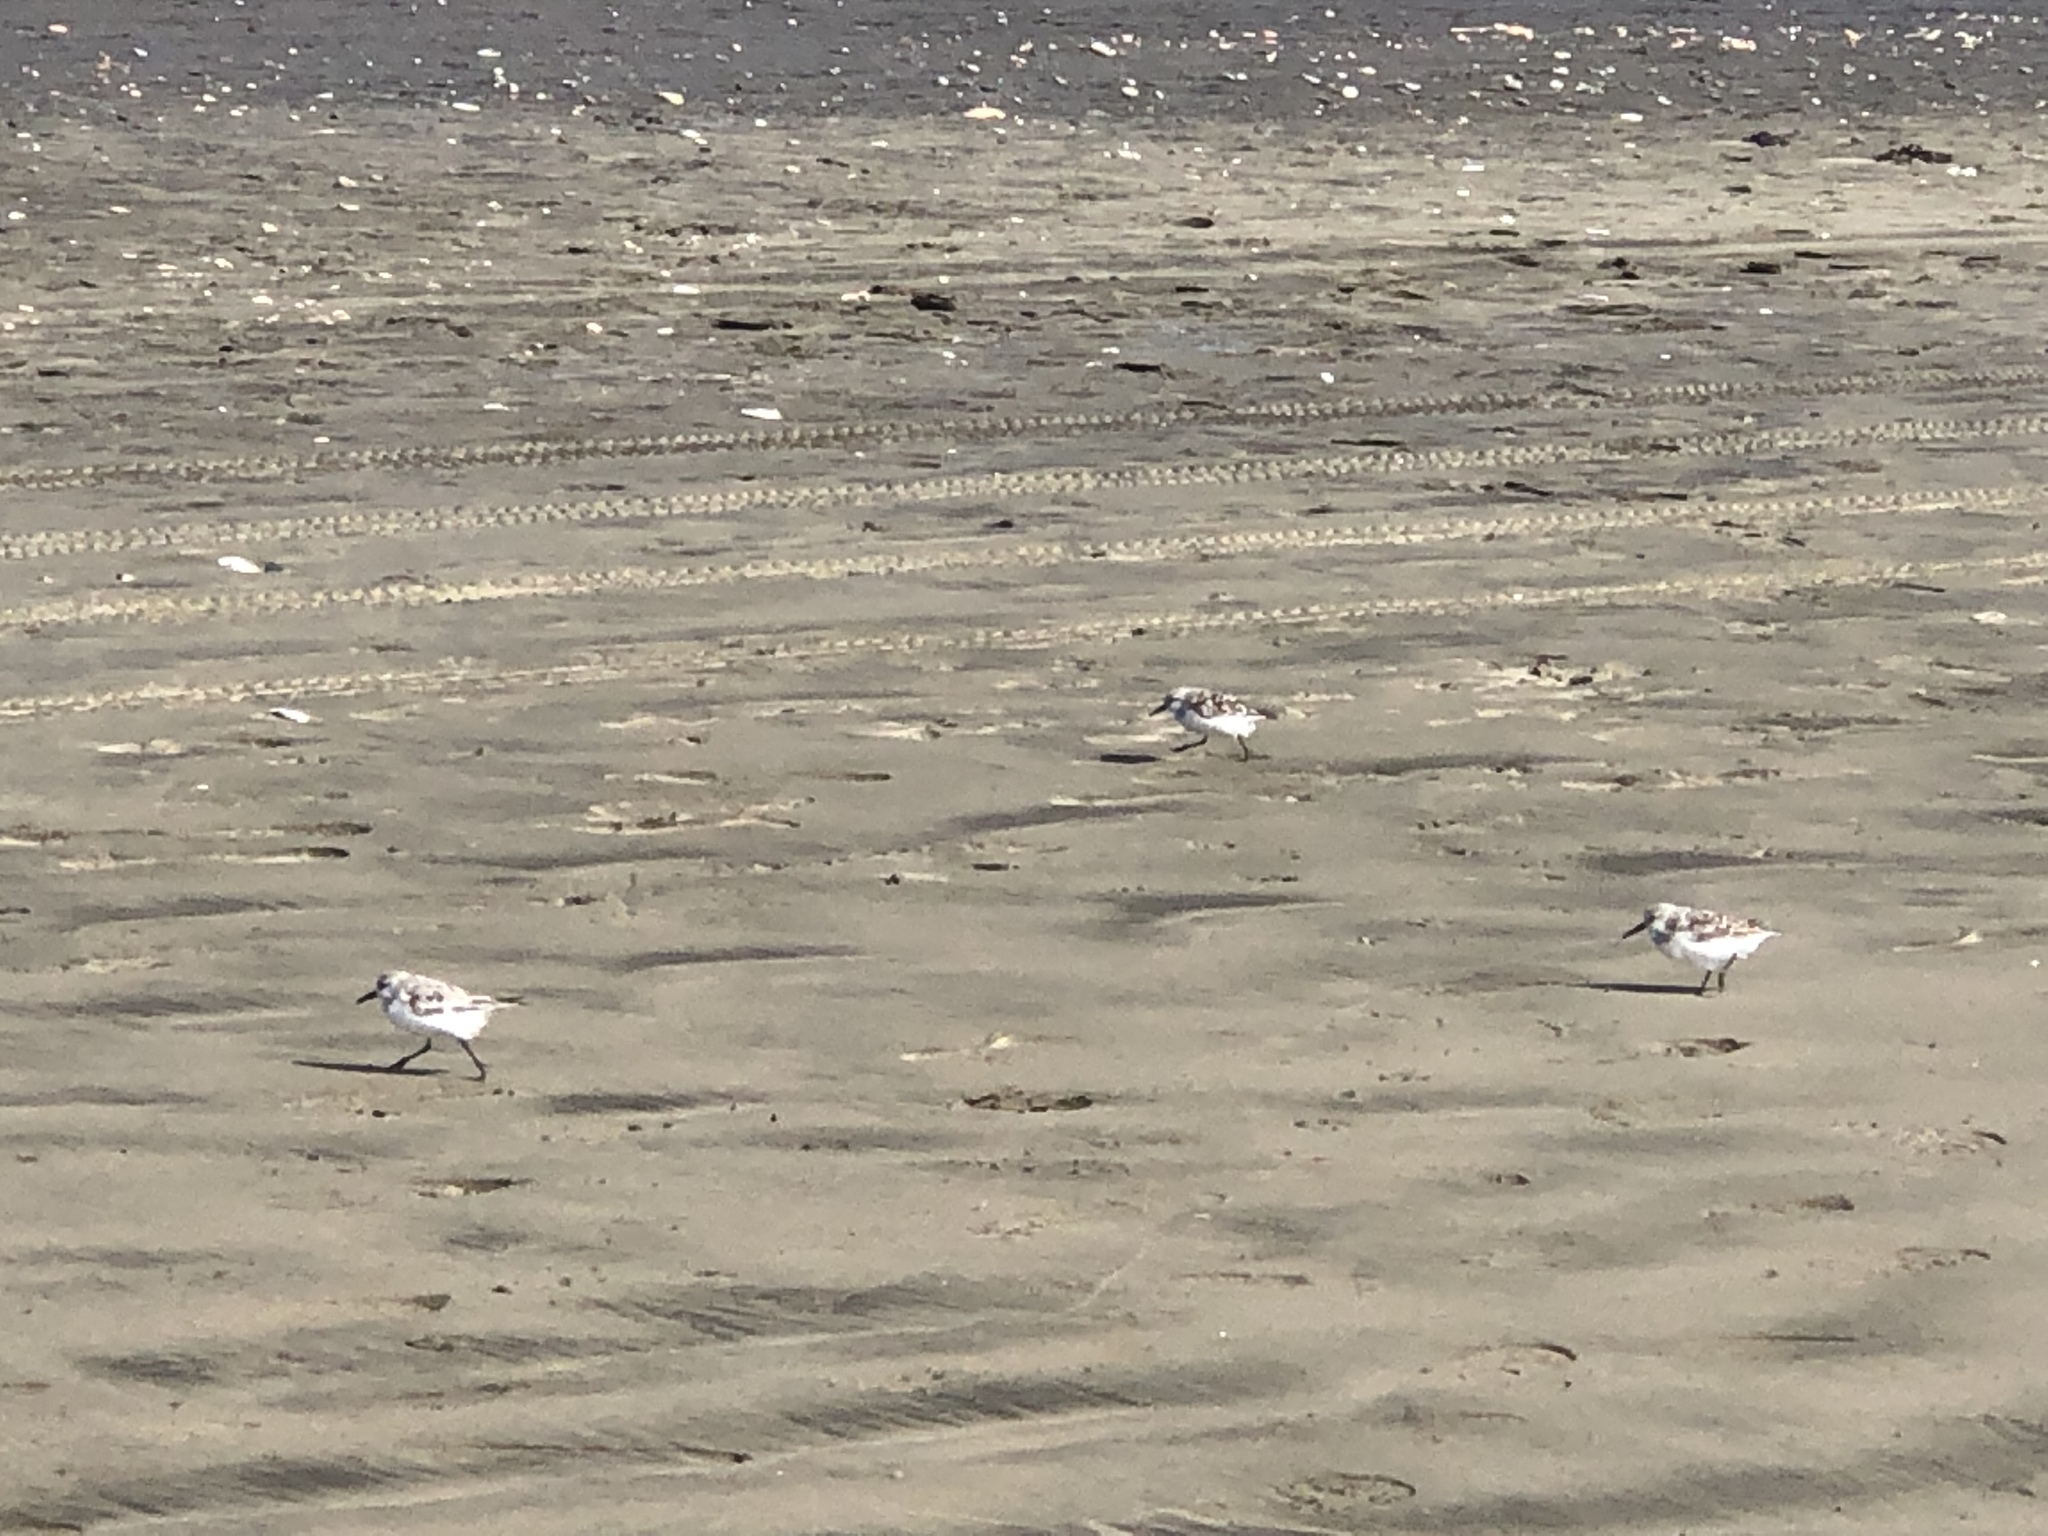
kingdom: Animalia
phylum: Chordata
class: Aves
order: Charadriiformes
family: Scolopacidae
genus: Calidris
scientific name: Calidris alba
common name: Sanderling
